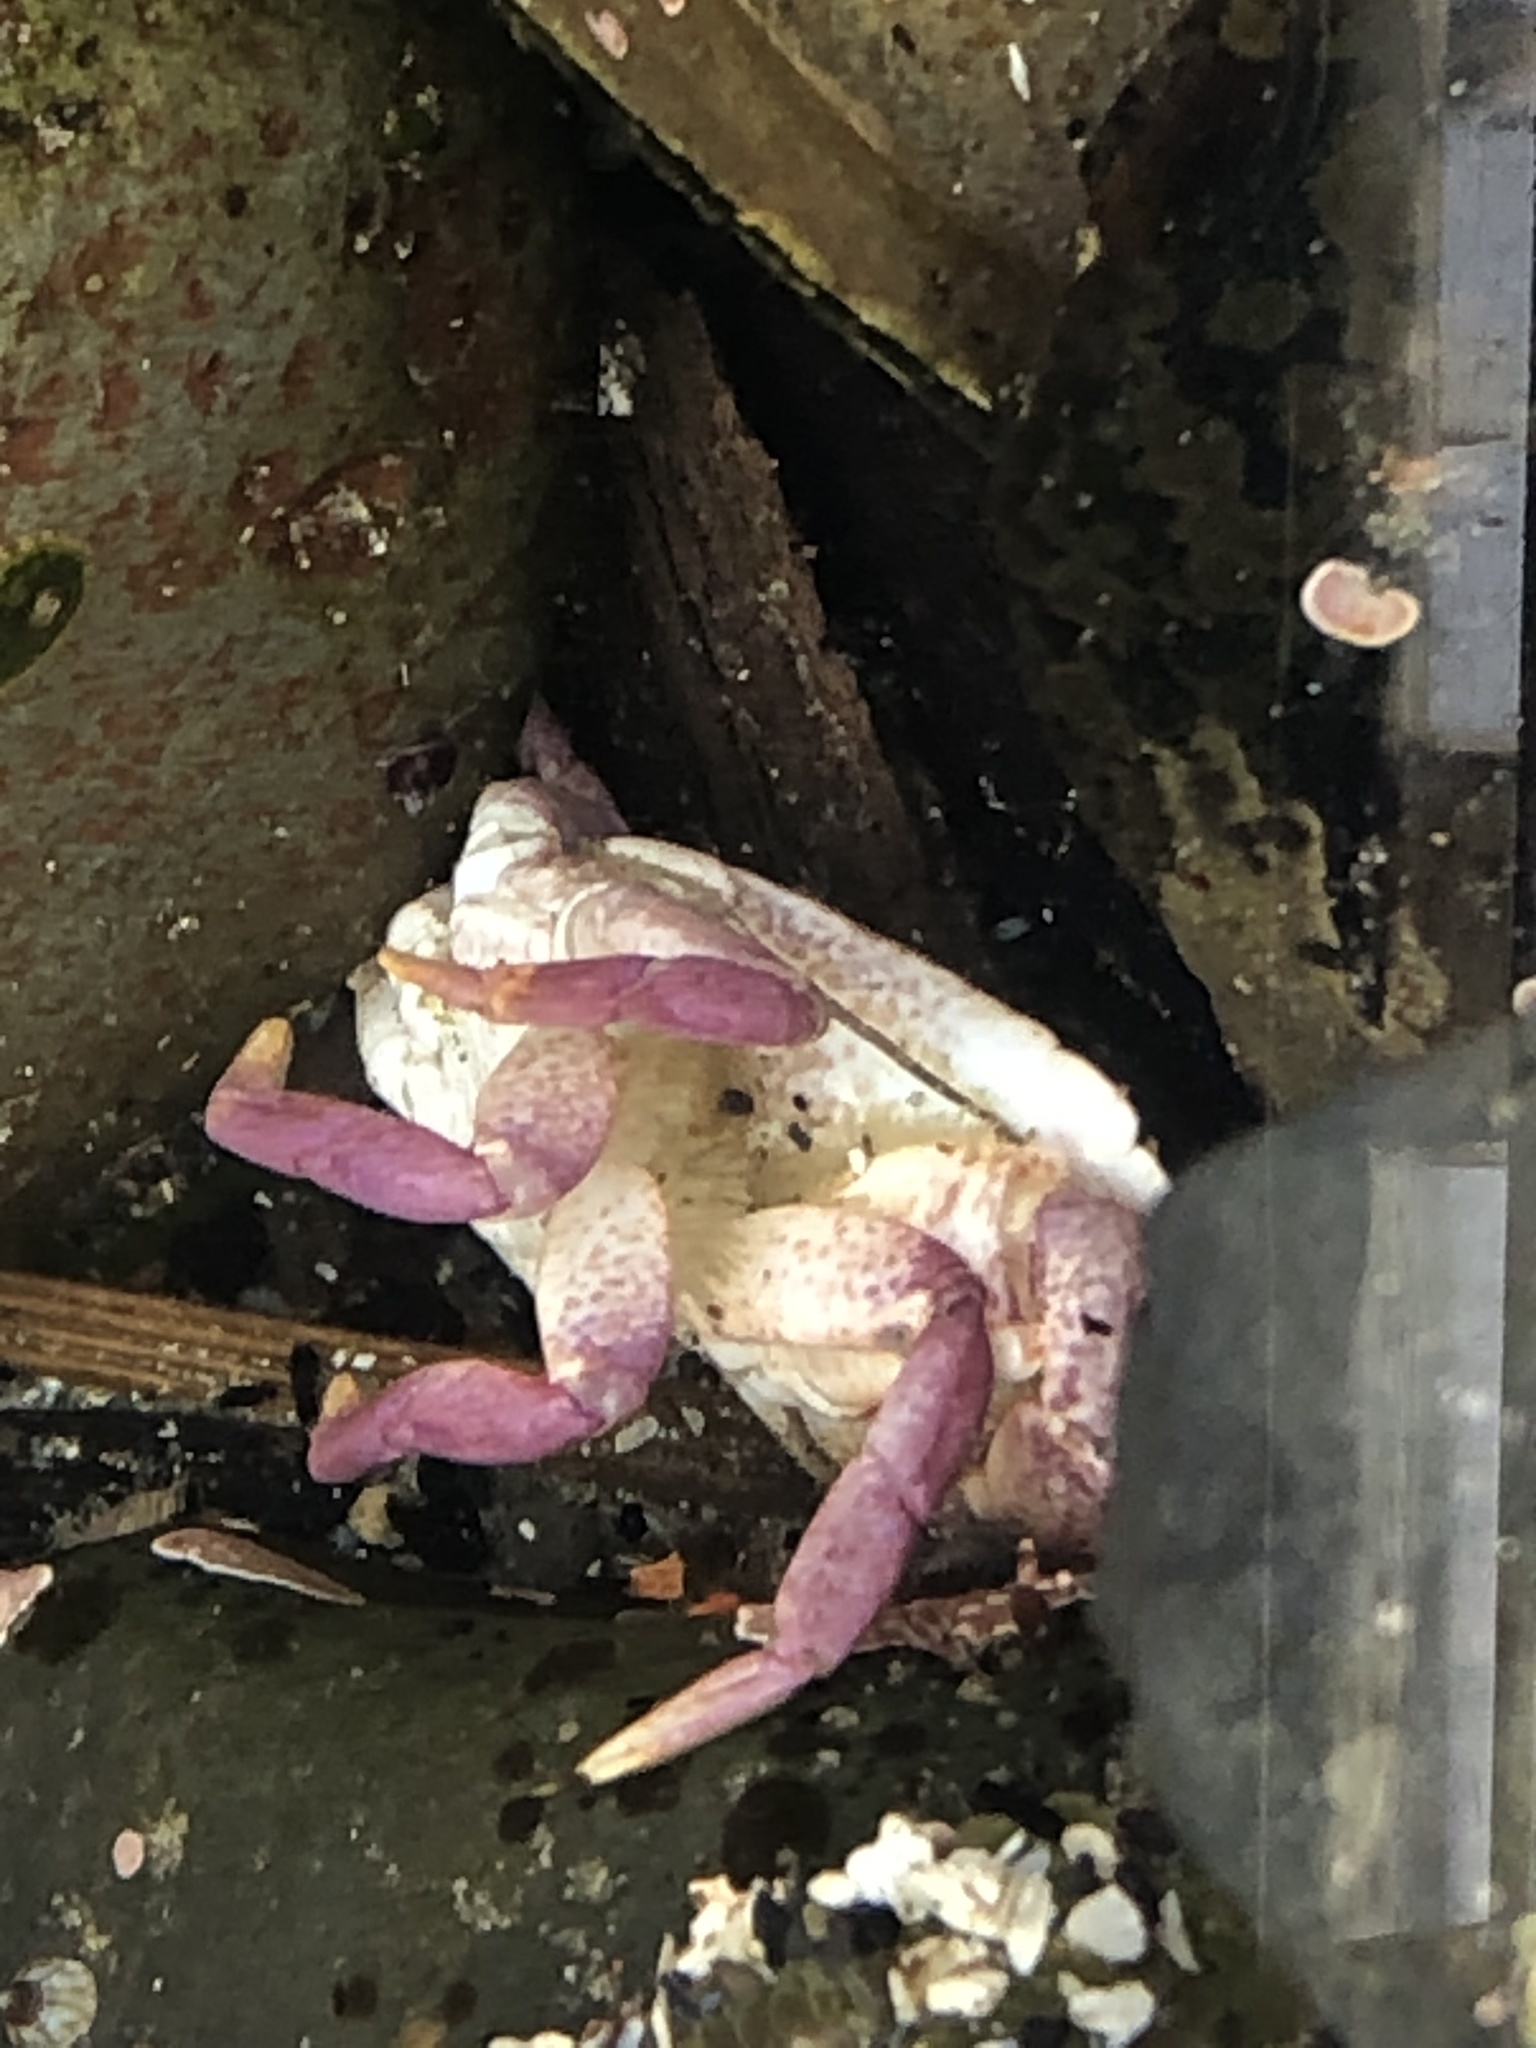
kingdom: Animalia
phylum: Arthropoda
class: Malacostraca
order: Decapoda
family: Cancridae
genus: Cancer
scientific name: Cancer productus
